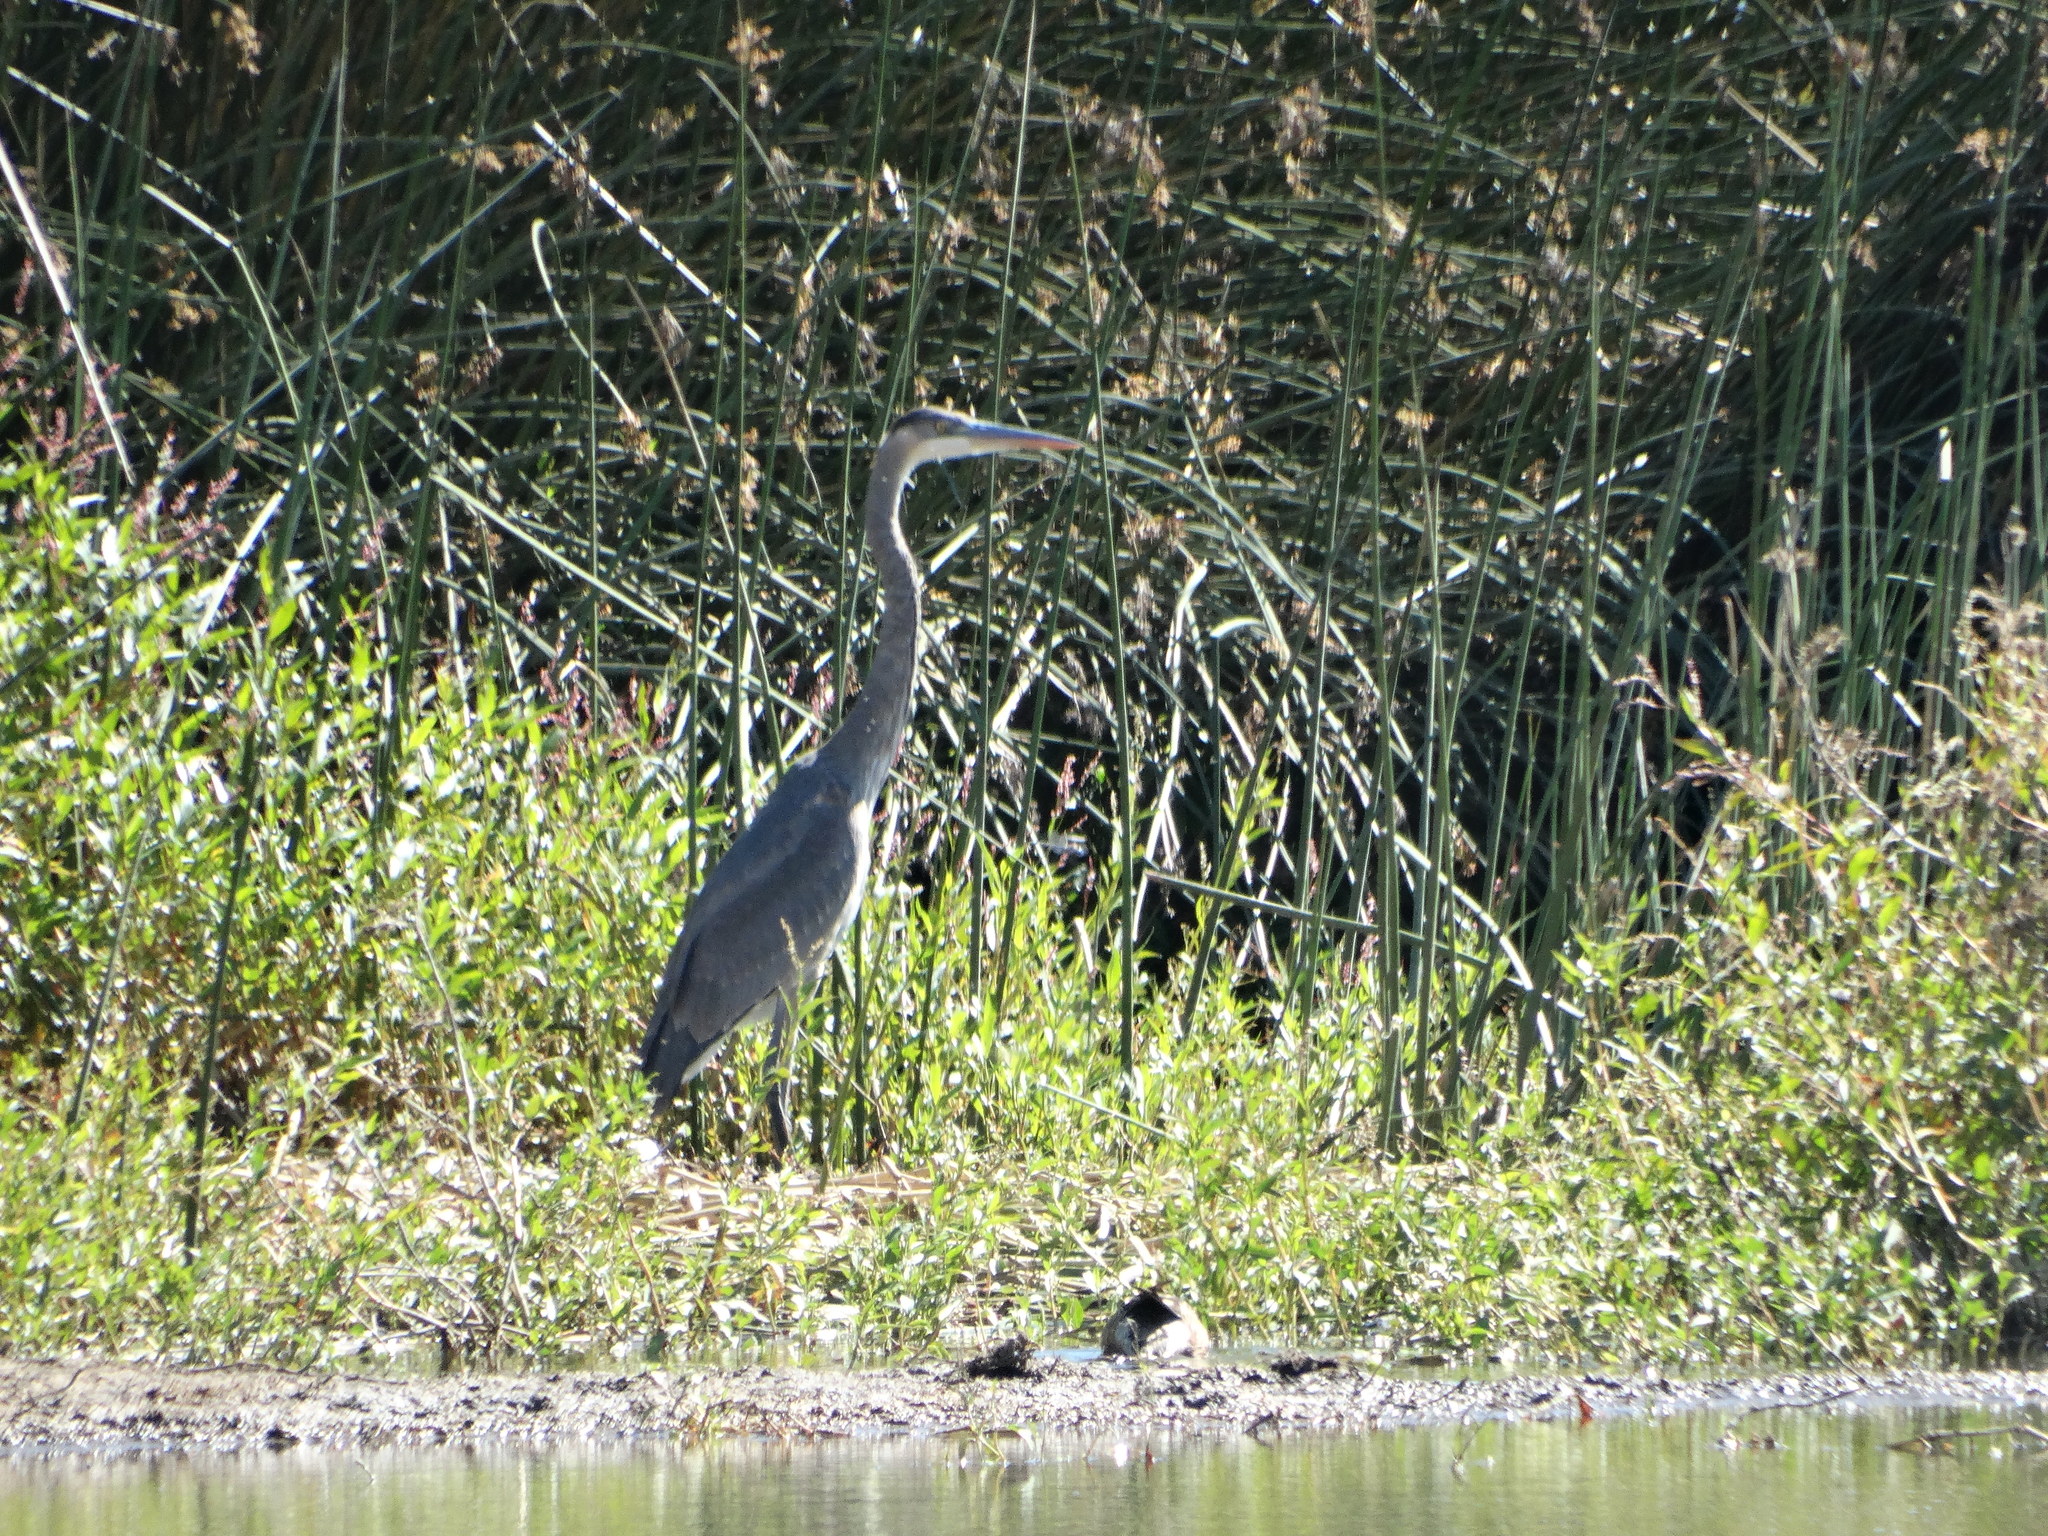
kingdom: Animalia
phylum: Chordata
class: Aves
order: Pelecaniformes
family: Ardeidae
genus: Ardea
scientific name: Ardea herodias
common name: Great blue heron
